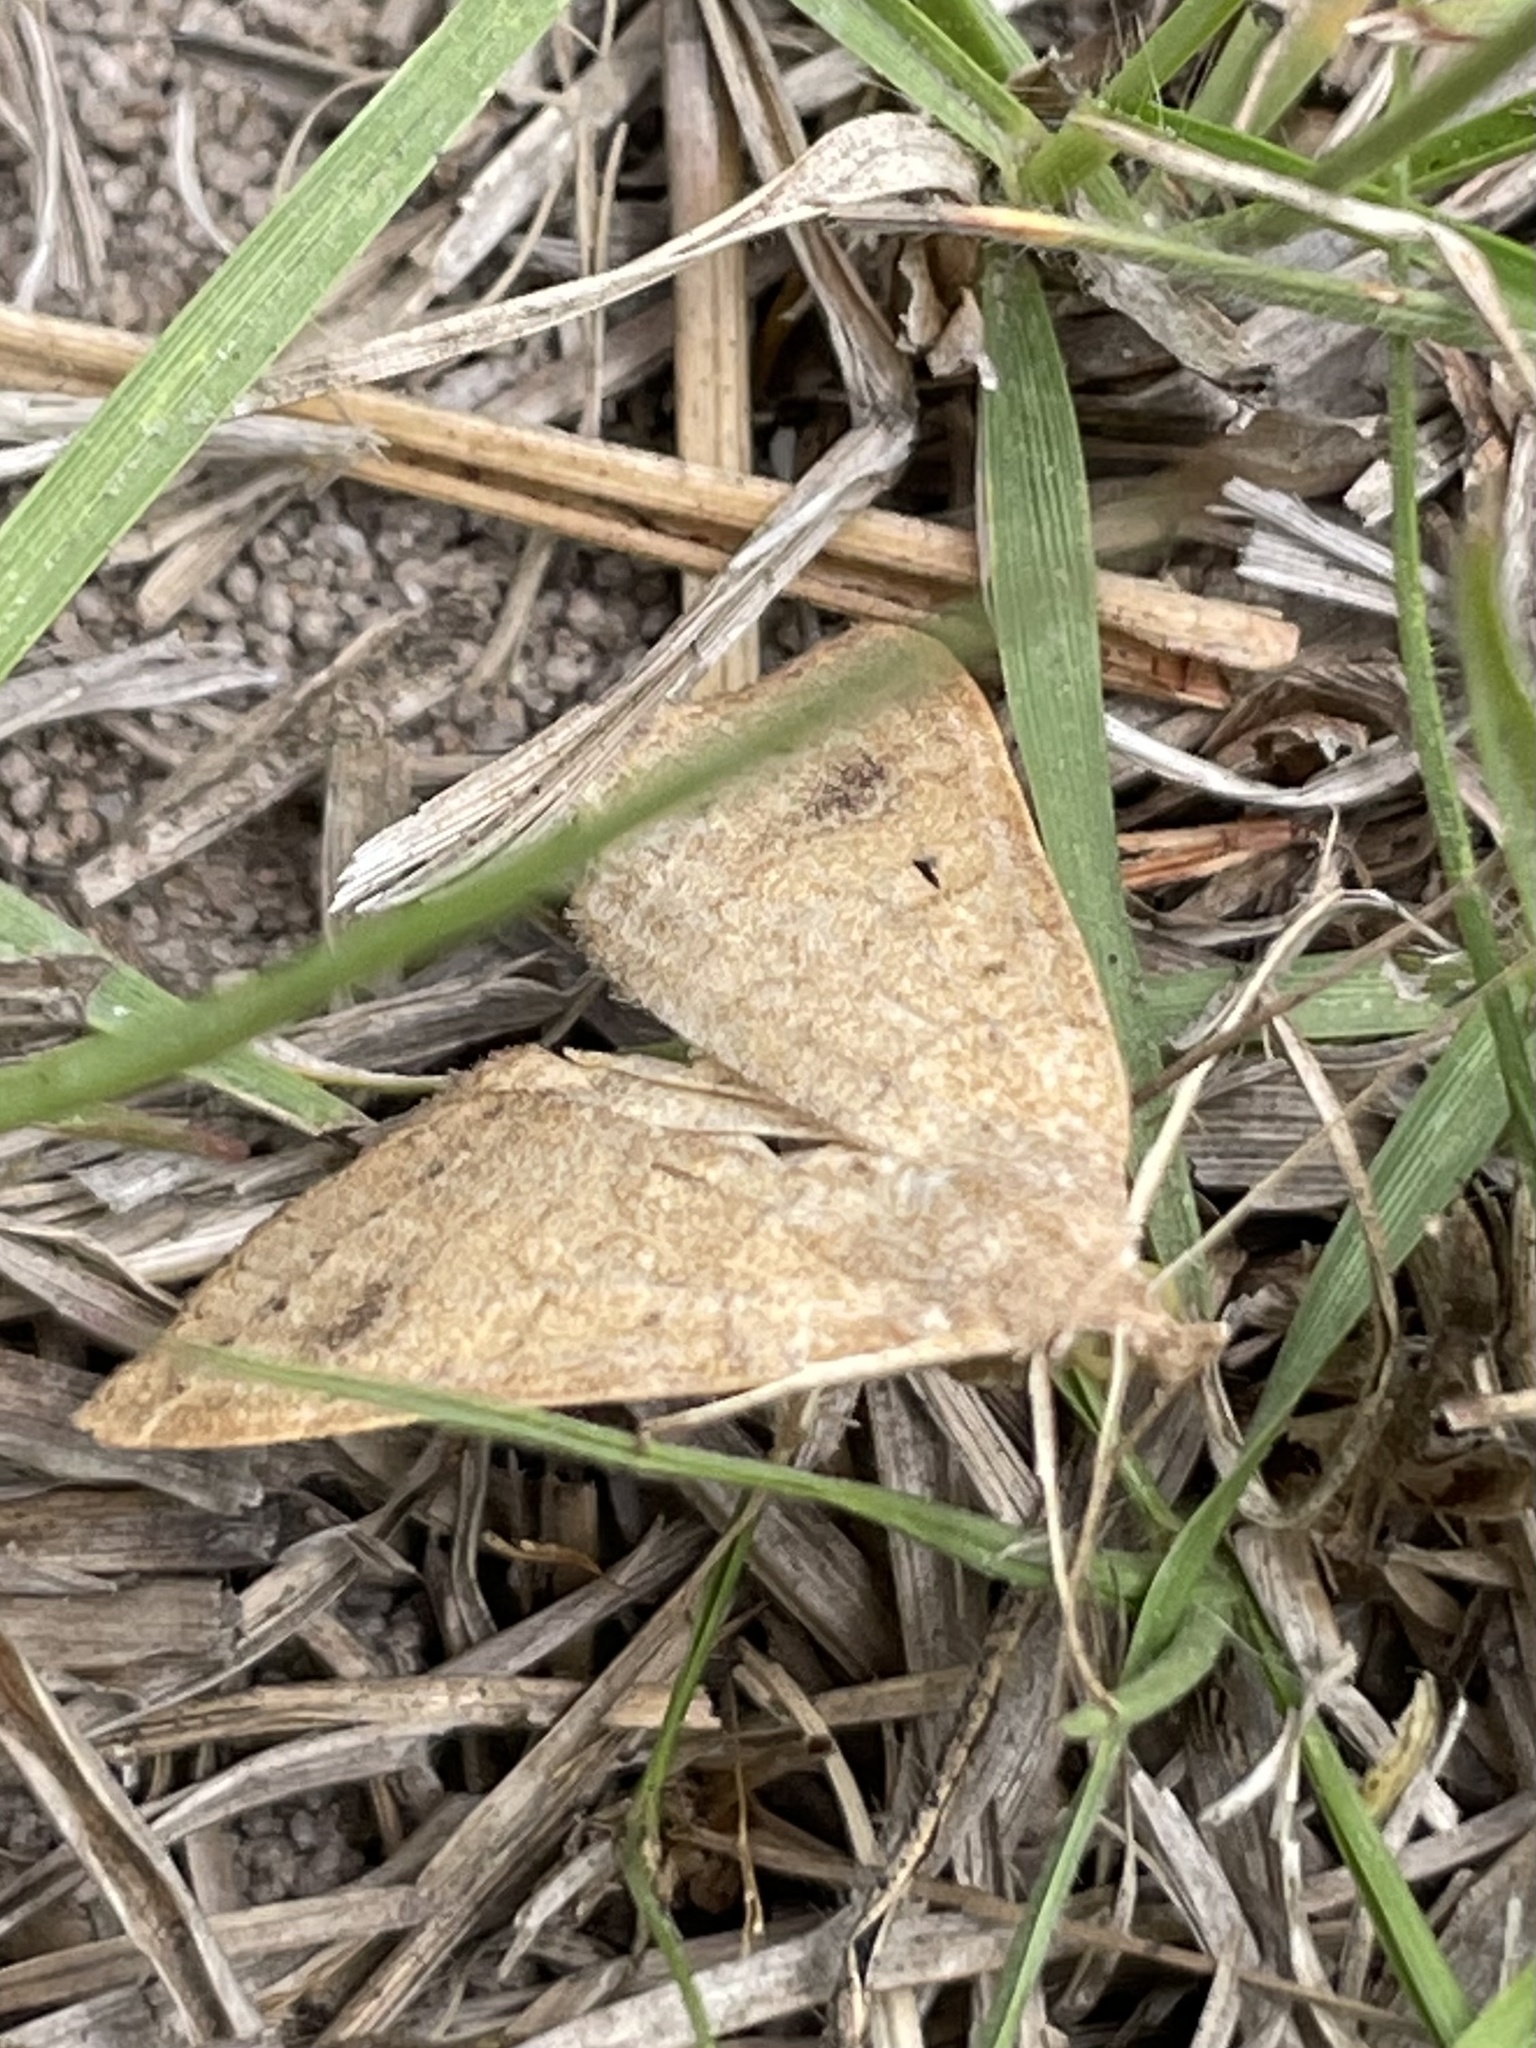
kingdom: Animalia
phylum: Arthropoda
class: Insecta
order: Lepidoptera
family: Erebidae
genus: Caenurgia
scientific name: Caenurgia chloropha
